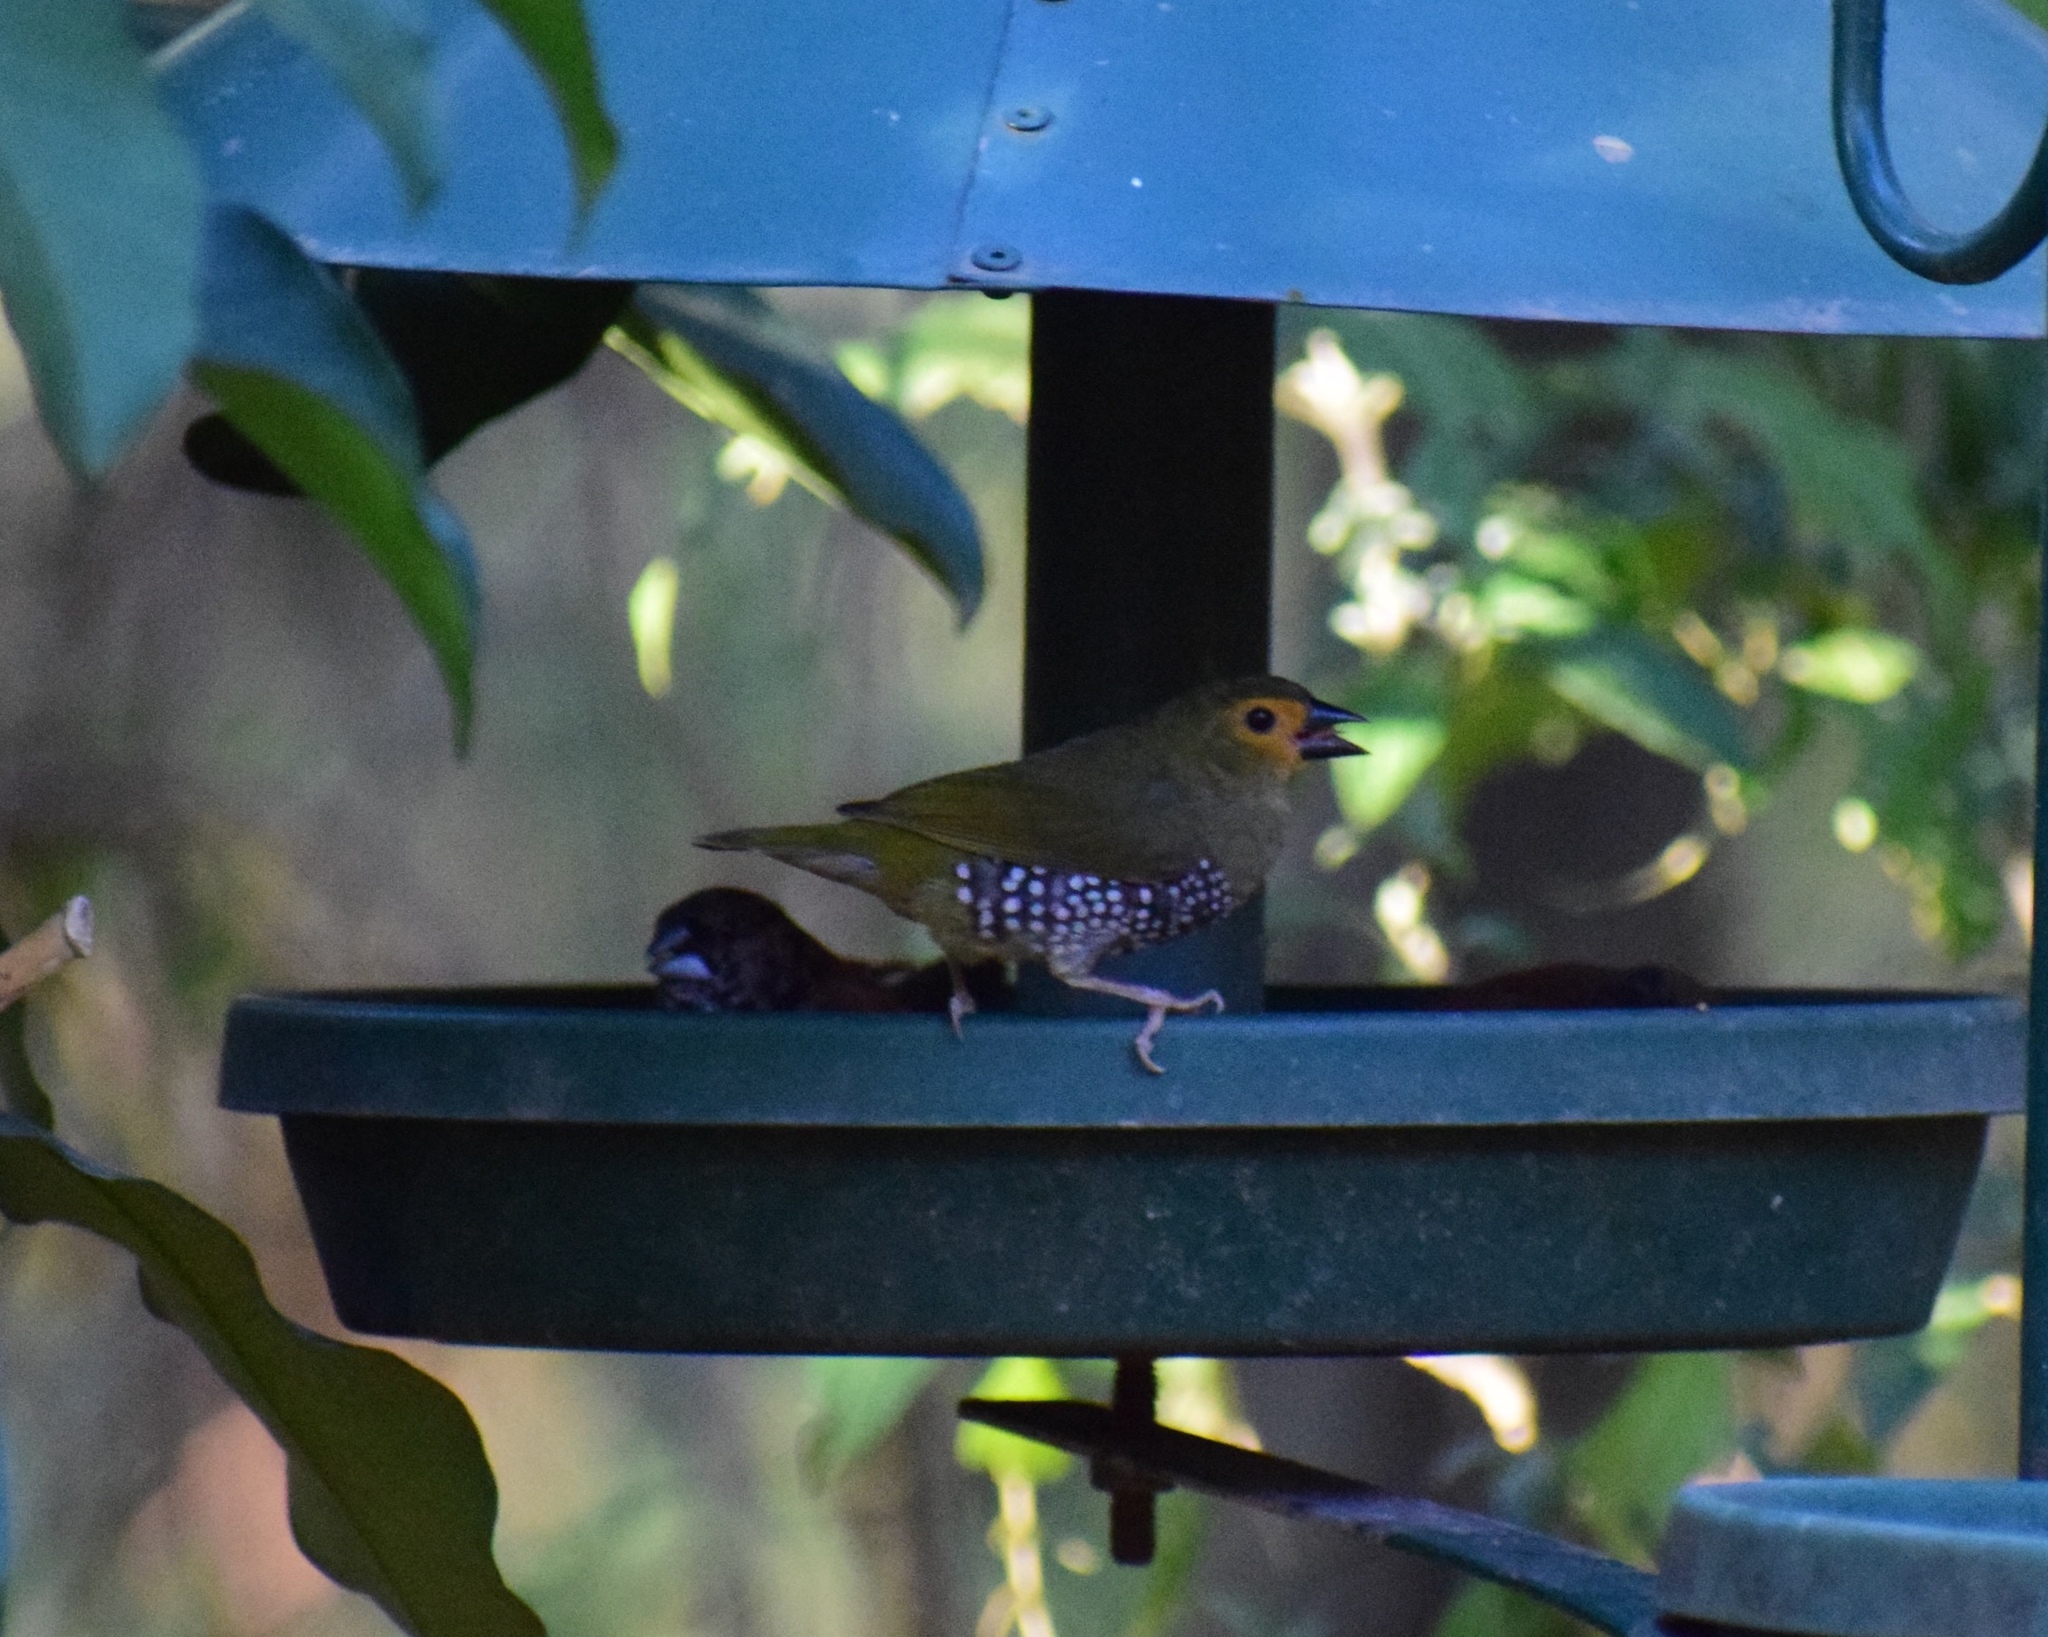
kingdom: Animalia
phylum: Chordata
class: Aves
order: Passeriformes
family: Estrildidae
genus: Mandingoa
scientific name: Mandingoa nitidula
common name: Green twinspot
